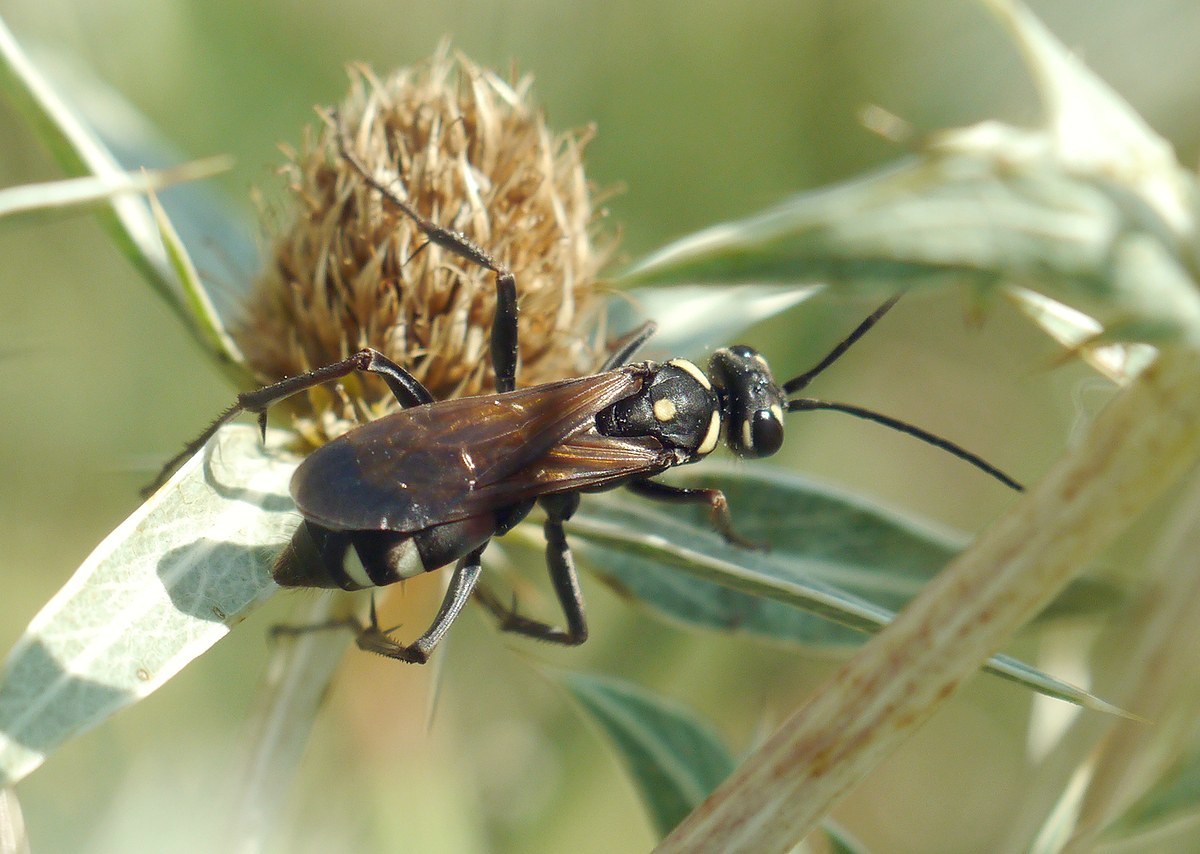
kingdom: Animalia
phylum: Arthropoda
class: Insecta
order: Hymenoptera
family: Pompilidae
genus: Cryptocheilus
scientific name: Cryptocheilus egregius
